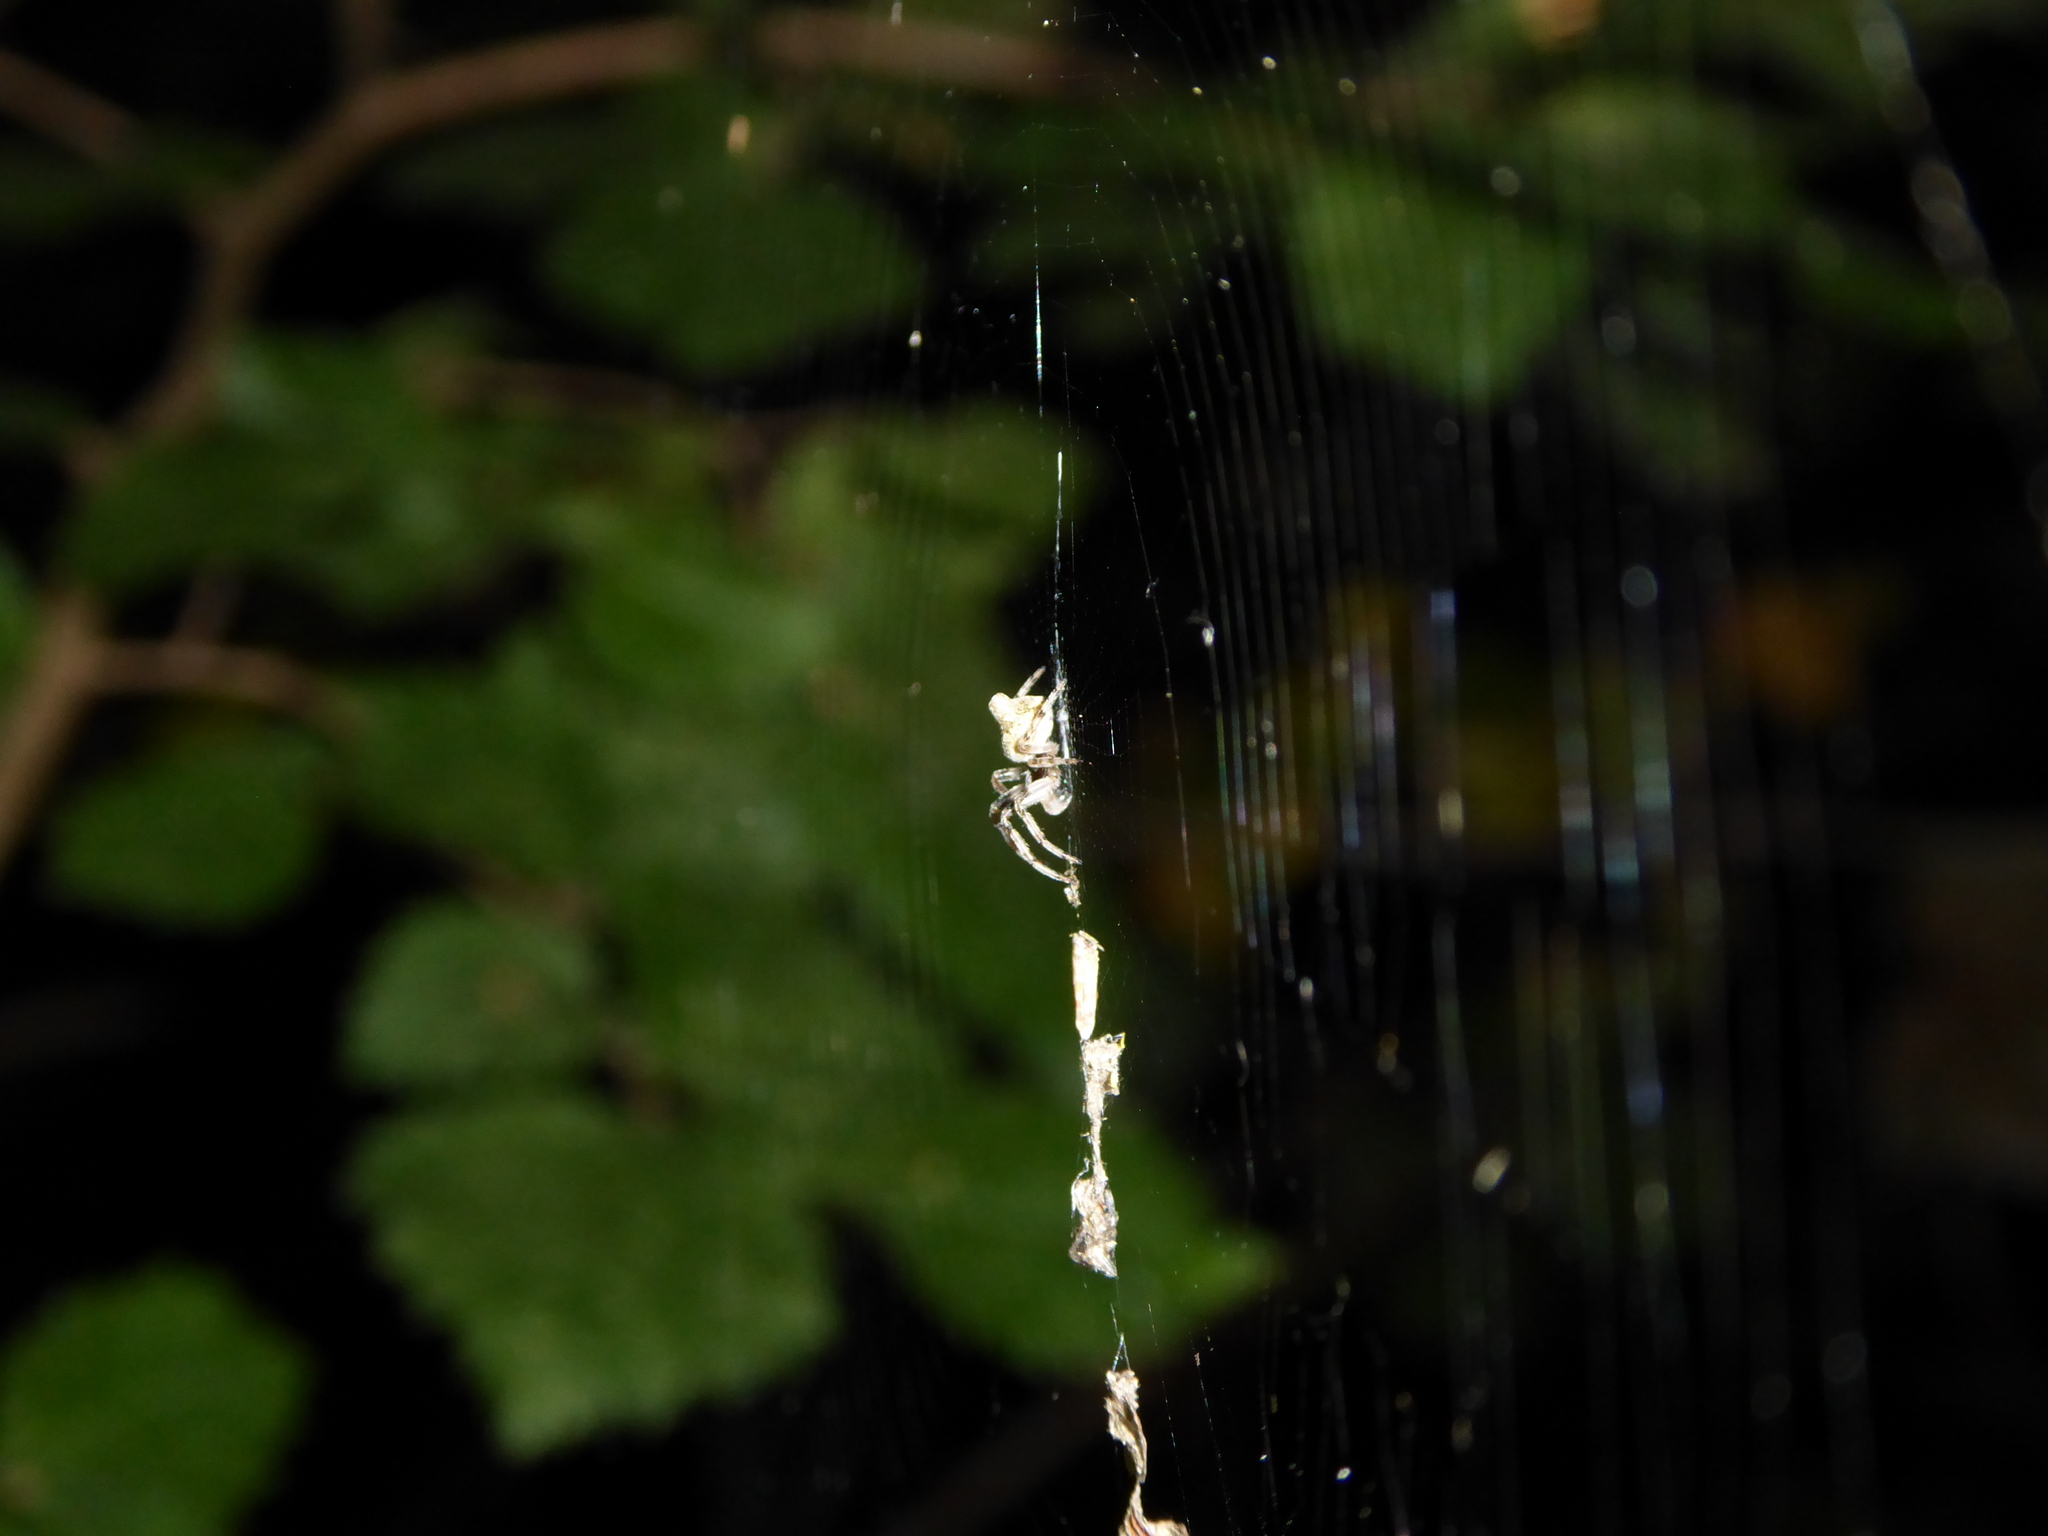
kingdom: Animalia
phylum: Arthropoda
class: Arachnida
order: Araneae
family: Araneidae
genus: Cyclosa
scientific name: Cyclosa conica
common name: Conical trashline orbweaver
